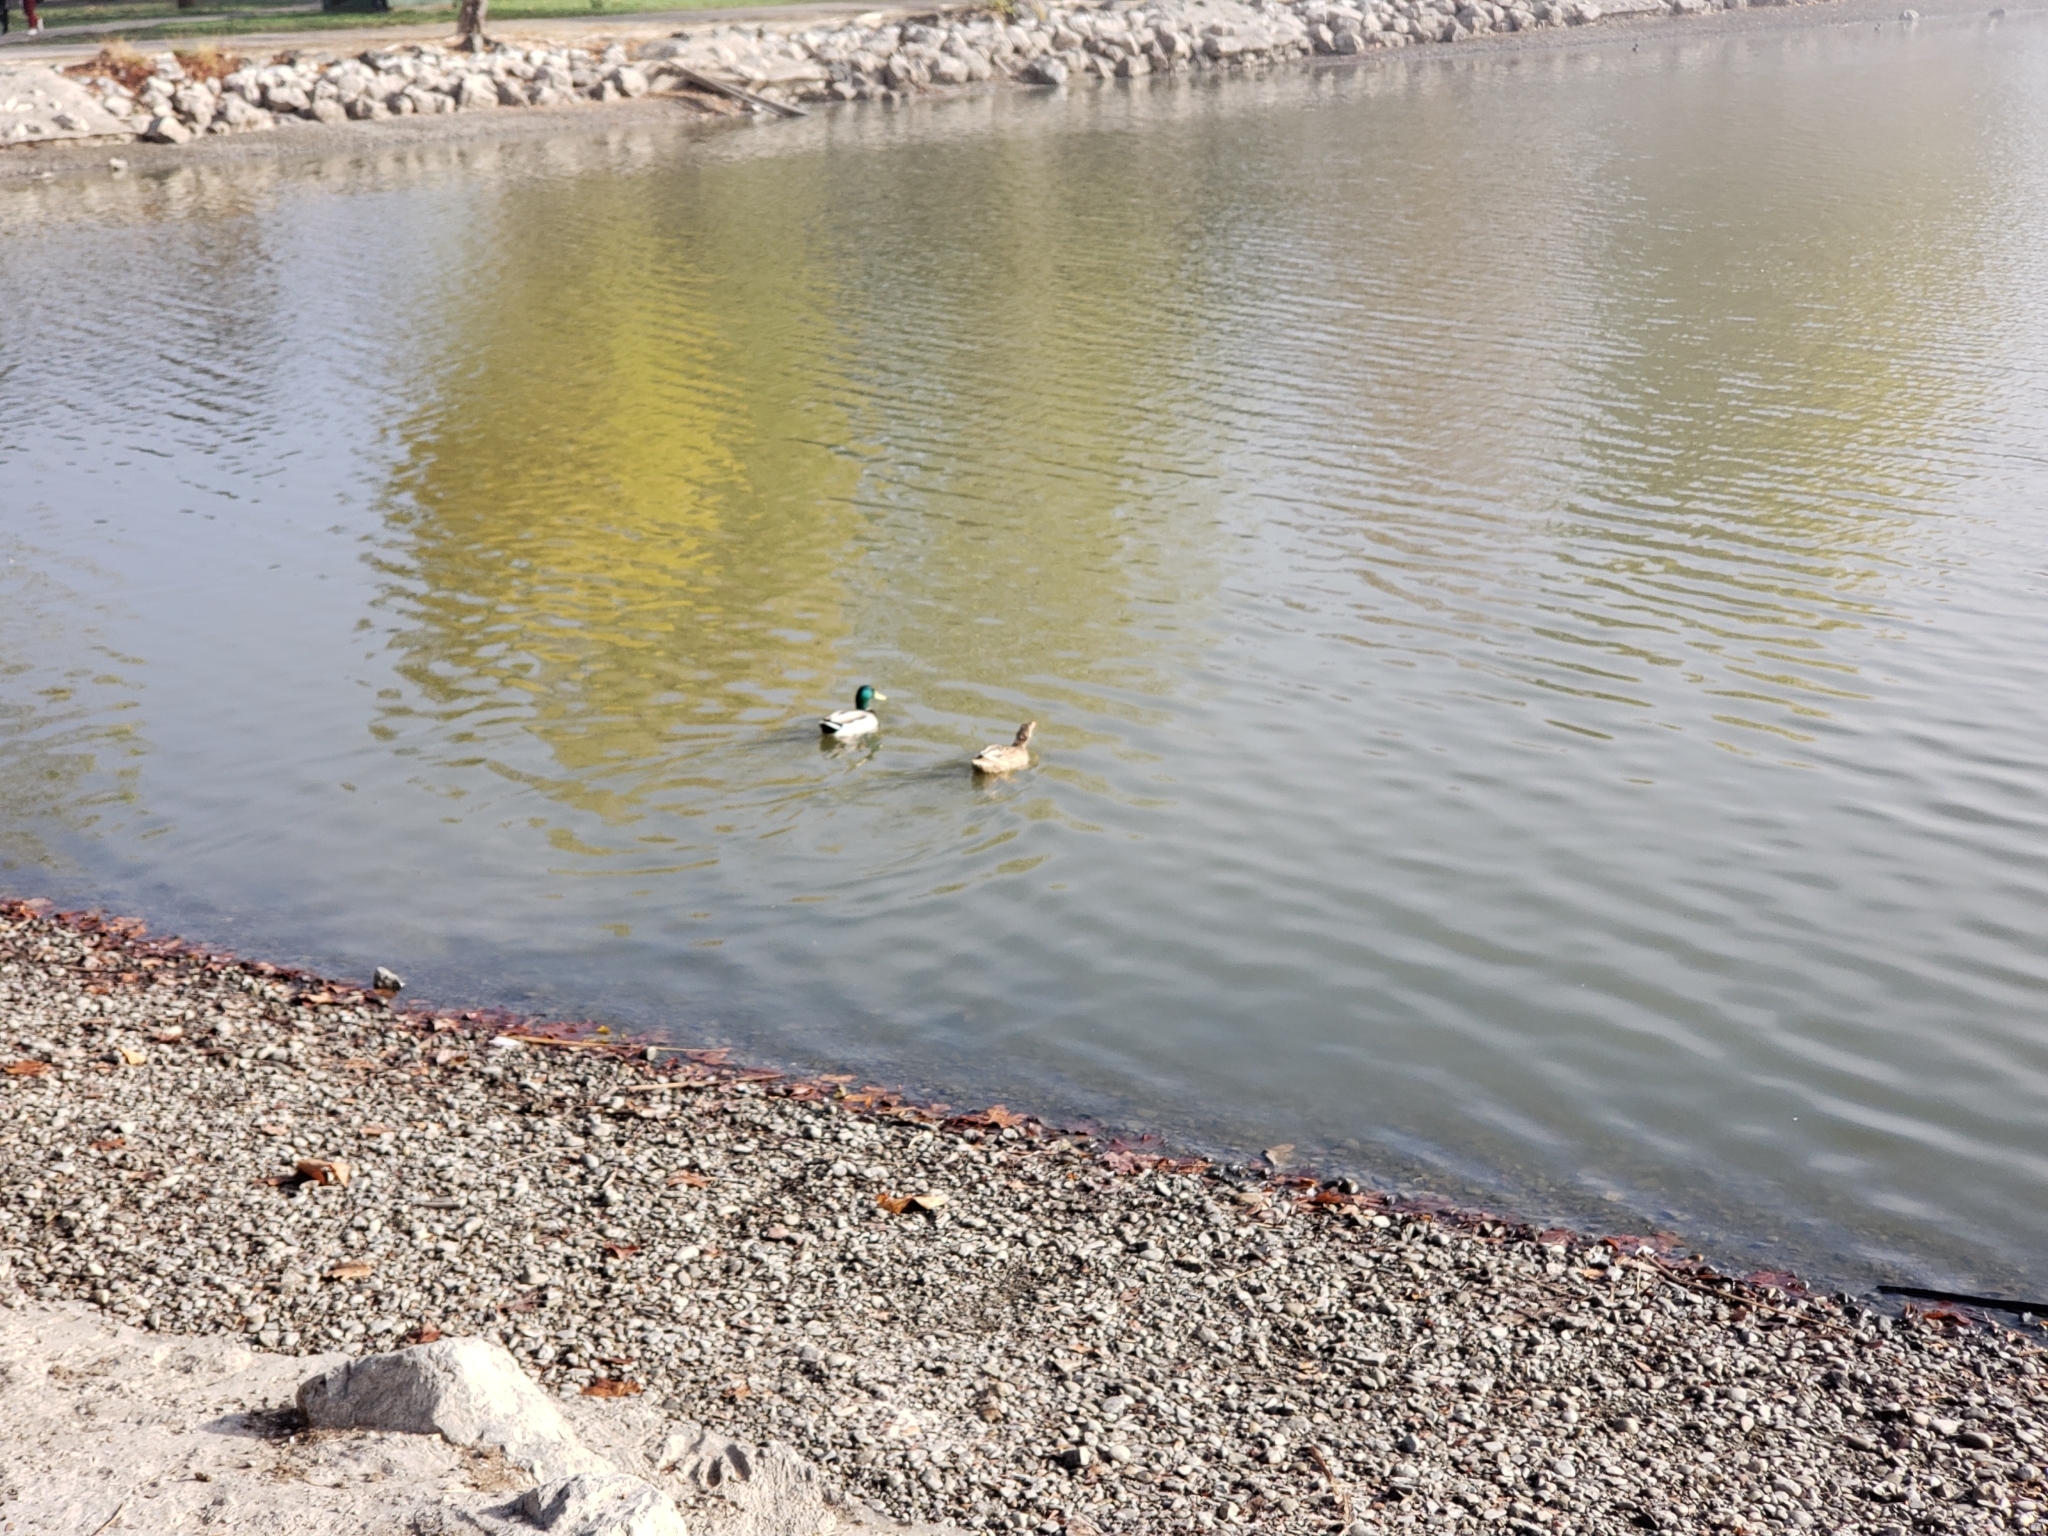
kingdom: Animalia
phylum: Chordata
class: Aves
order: Anseriformes
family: Anatidae
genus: Anas
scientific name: Anas platyrhynchos
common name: Mallard
